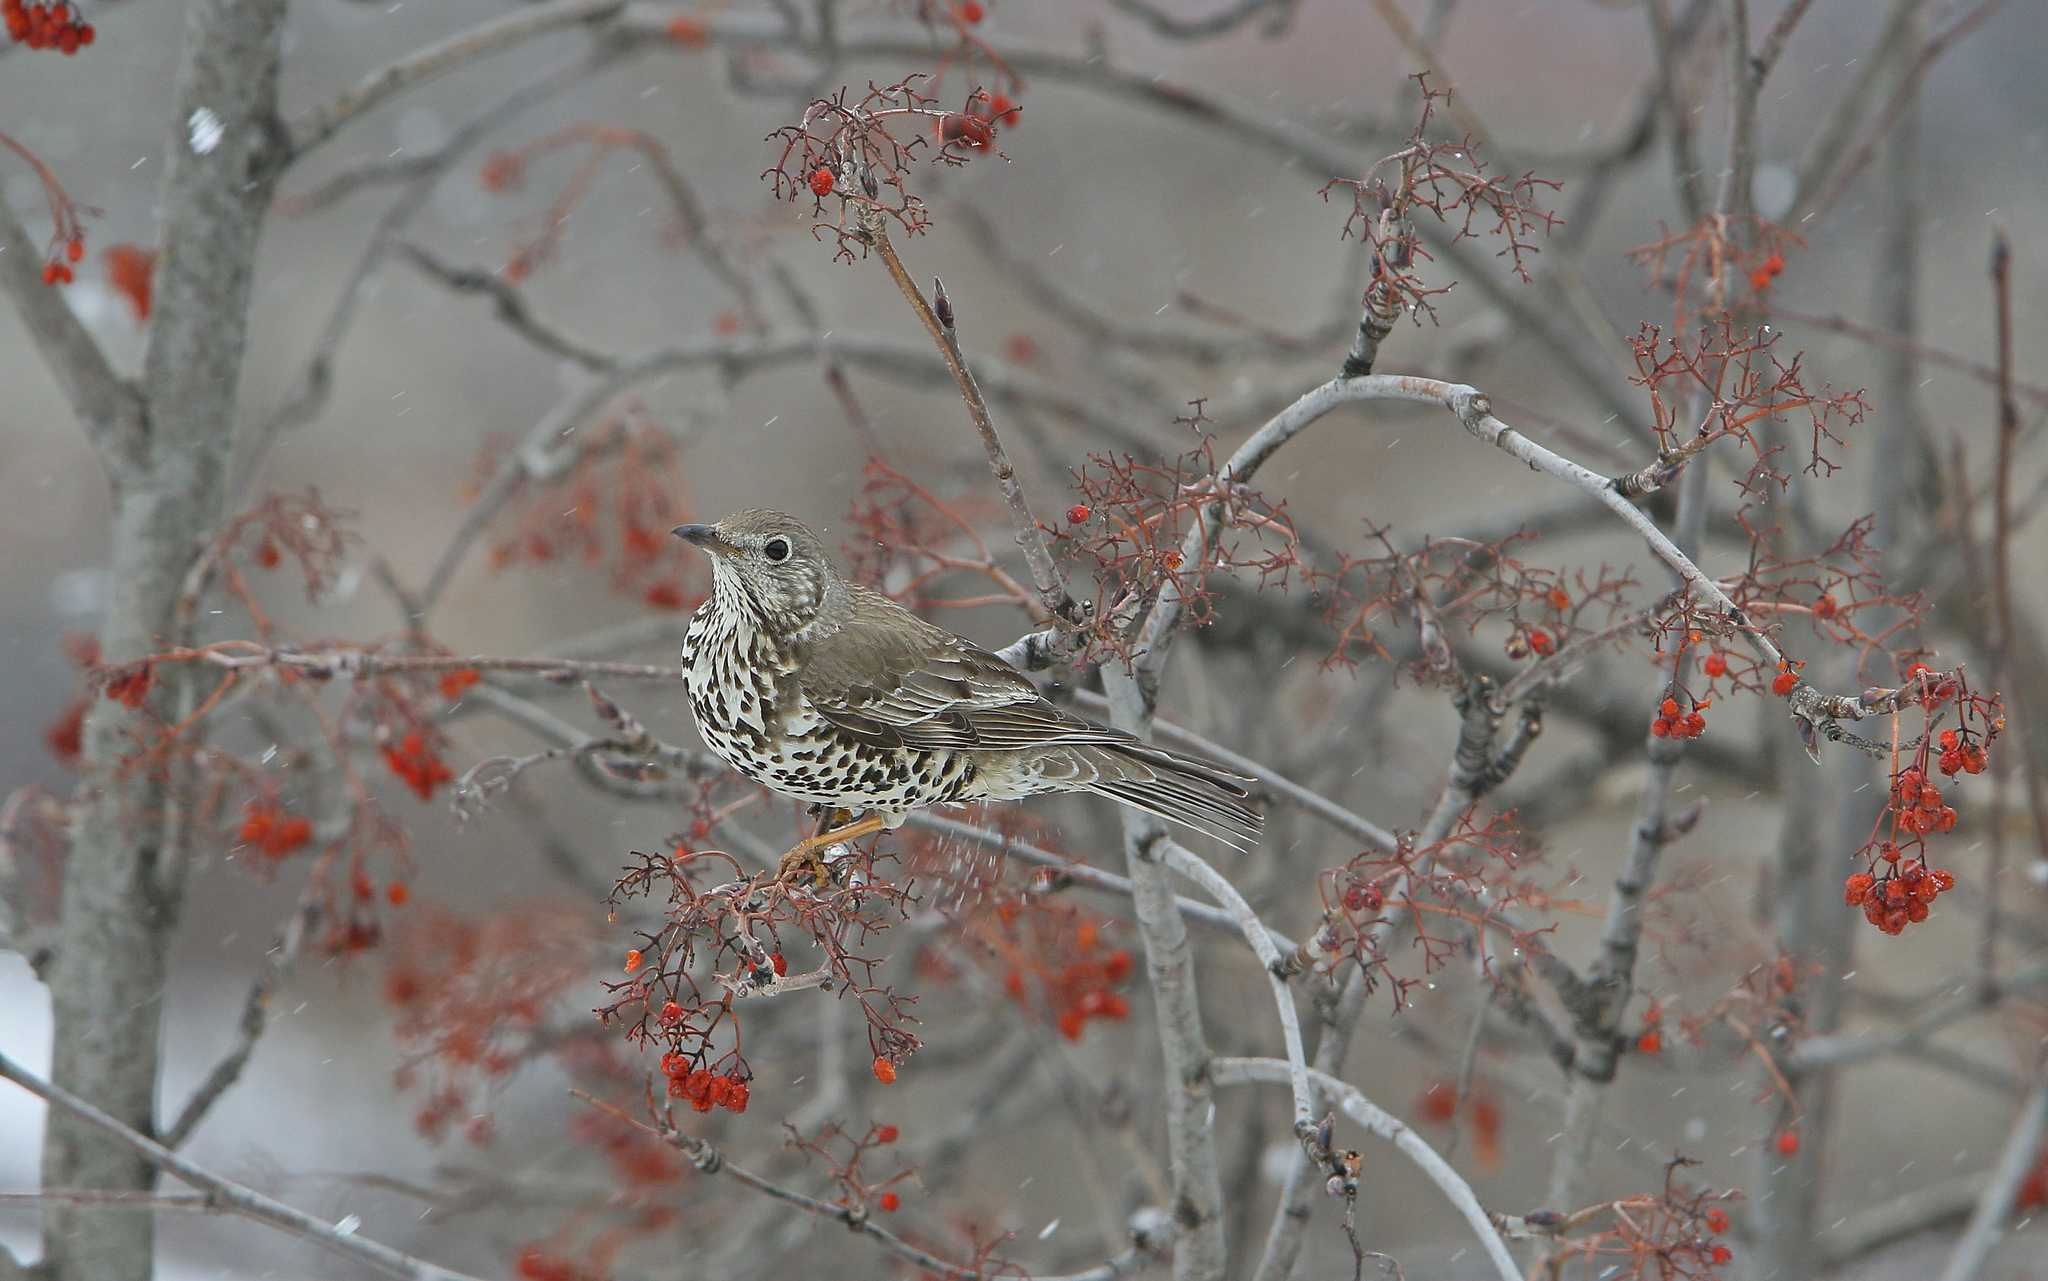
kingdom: Animalia
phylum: Chordata
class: Aves
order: Passeriformes
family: Turdidae
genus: Turdus
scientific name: Turdus viscivorus
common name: Mistle thrush
